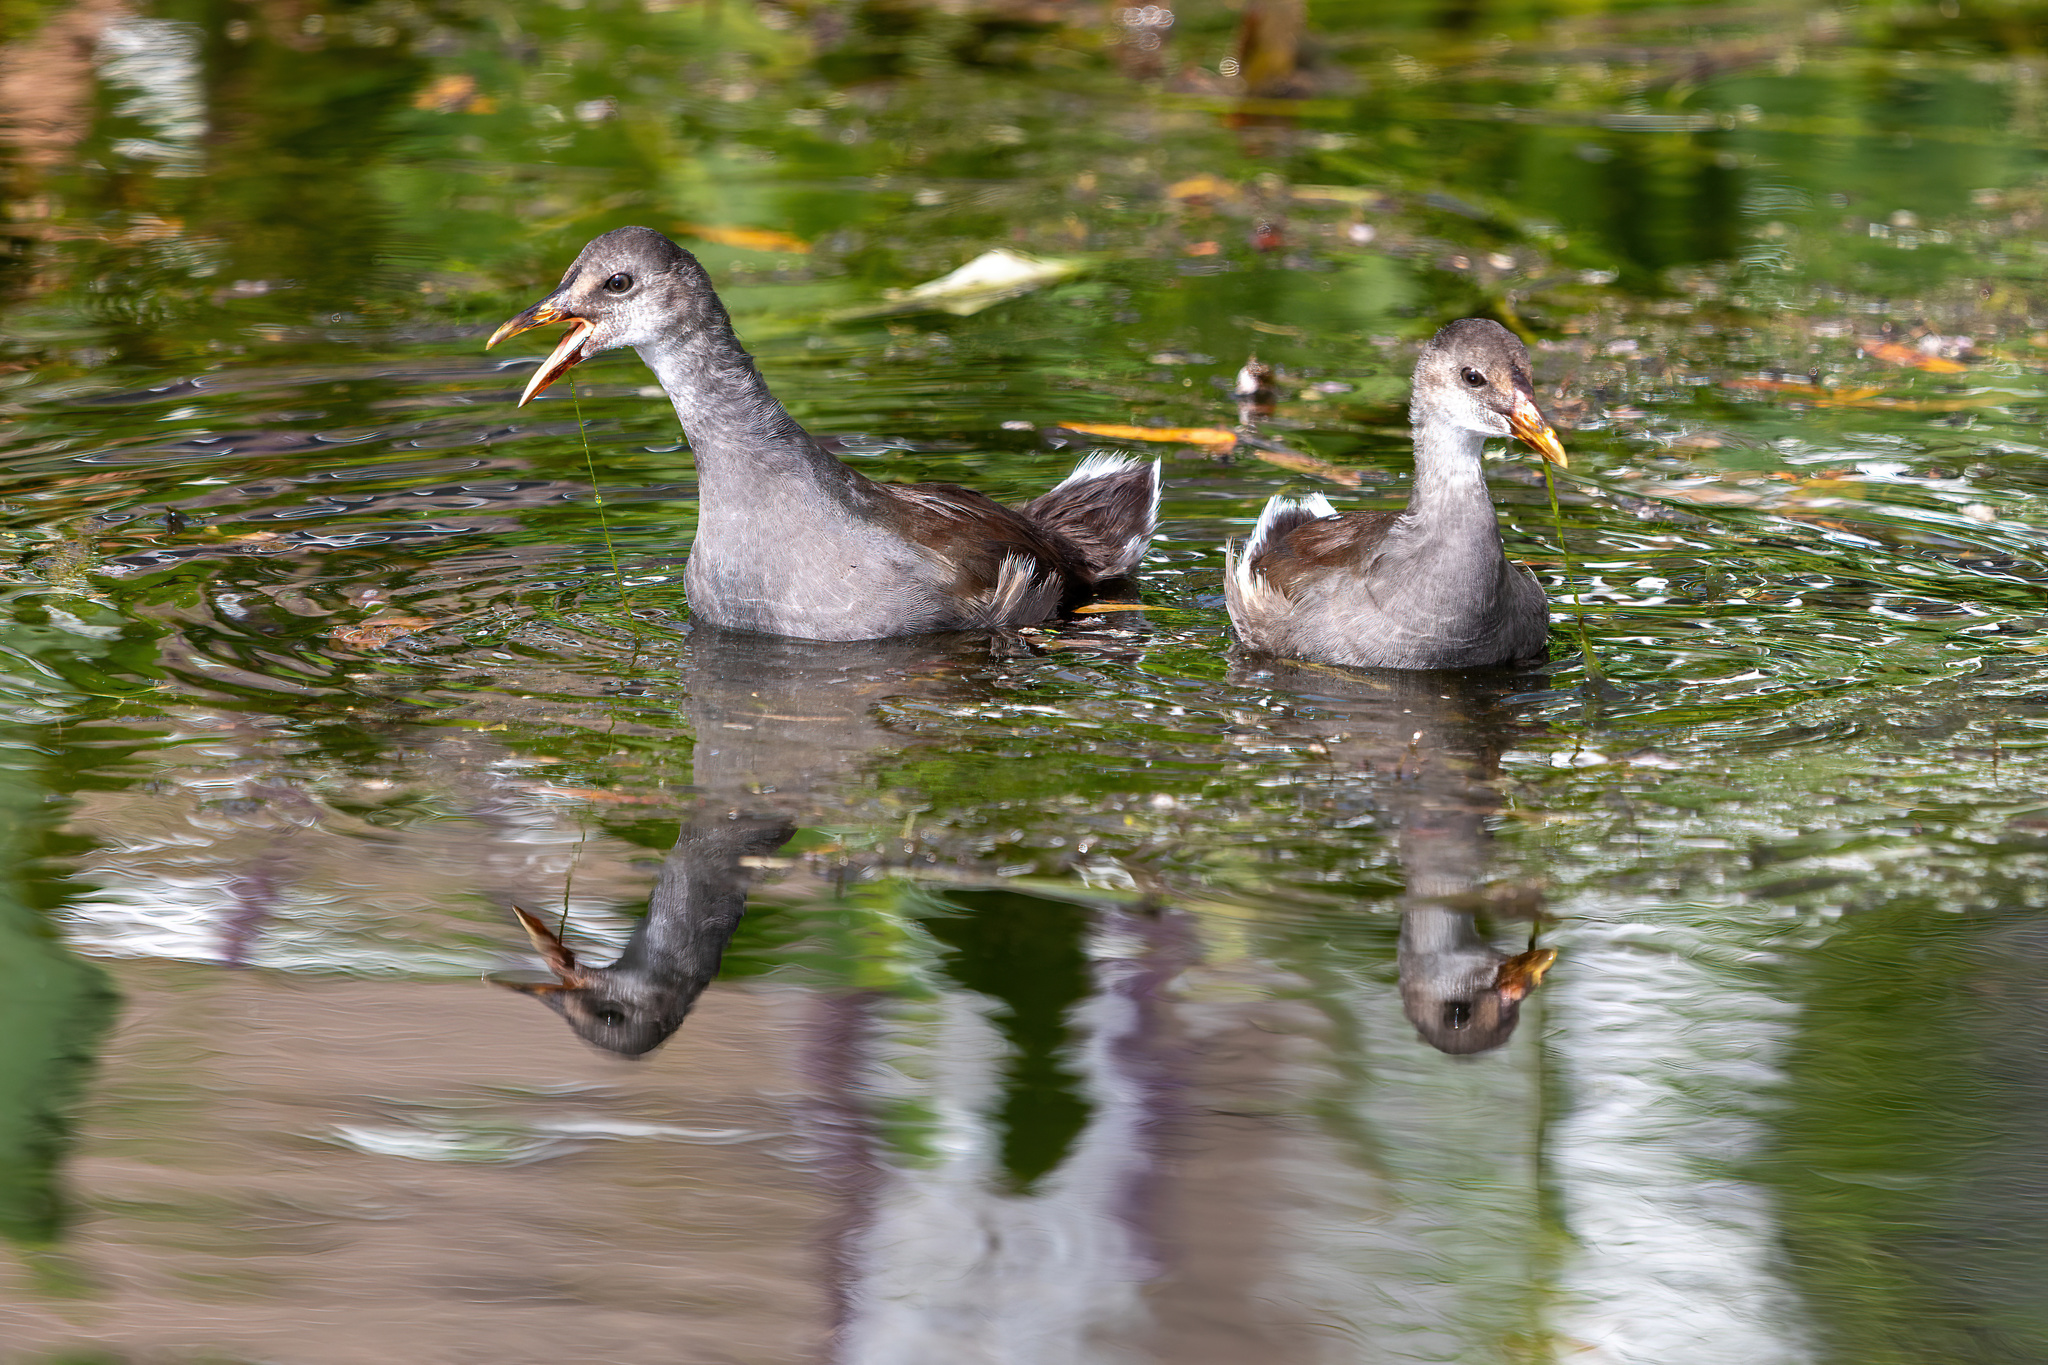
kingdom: Animalia
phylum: Chordata
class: Aves
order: Gruiformes
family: Rallidae
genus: Gallinula
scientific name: Gallinula chloropus
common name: Common moorhen
